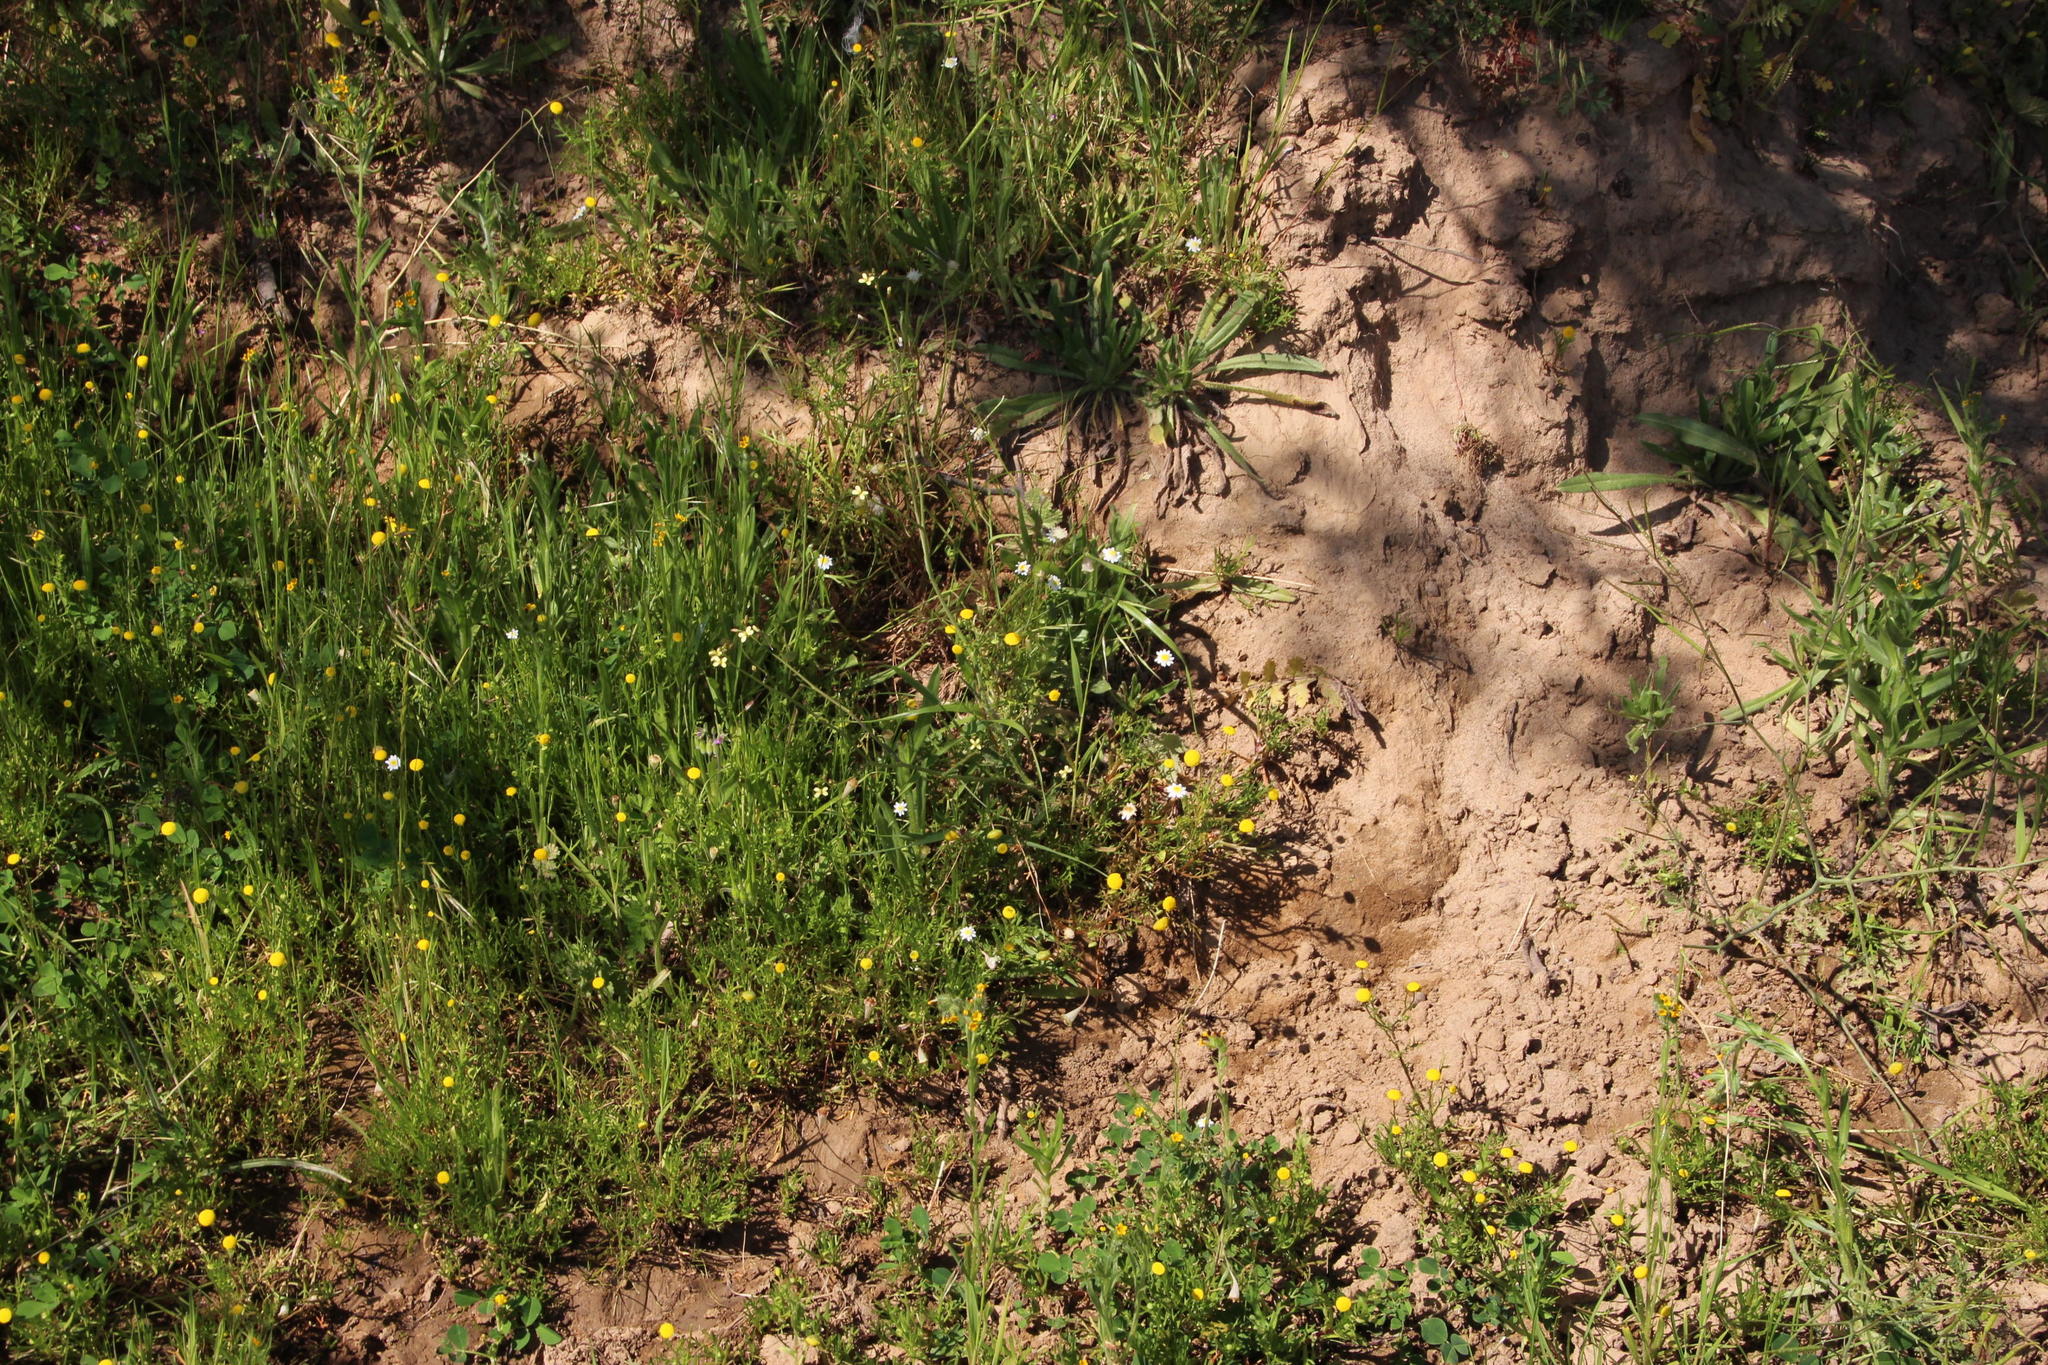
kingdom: Plantae
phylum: Tracheophyta
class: Magnoliopsida
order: Asterales
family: Asteraceae
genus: Cotula
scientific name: Cotula turbinata
